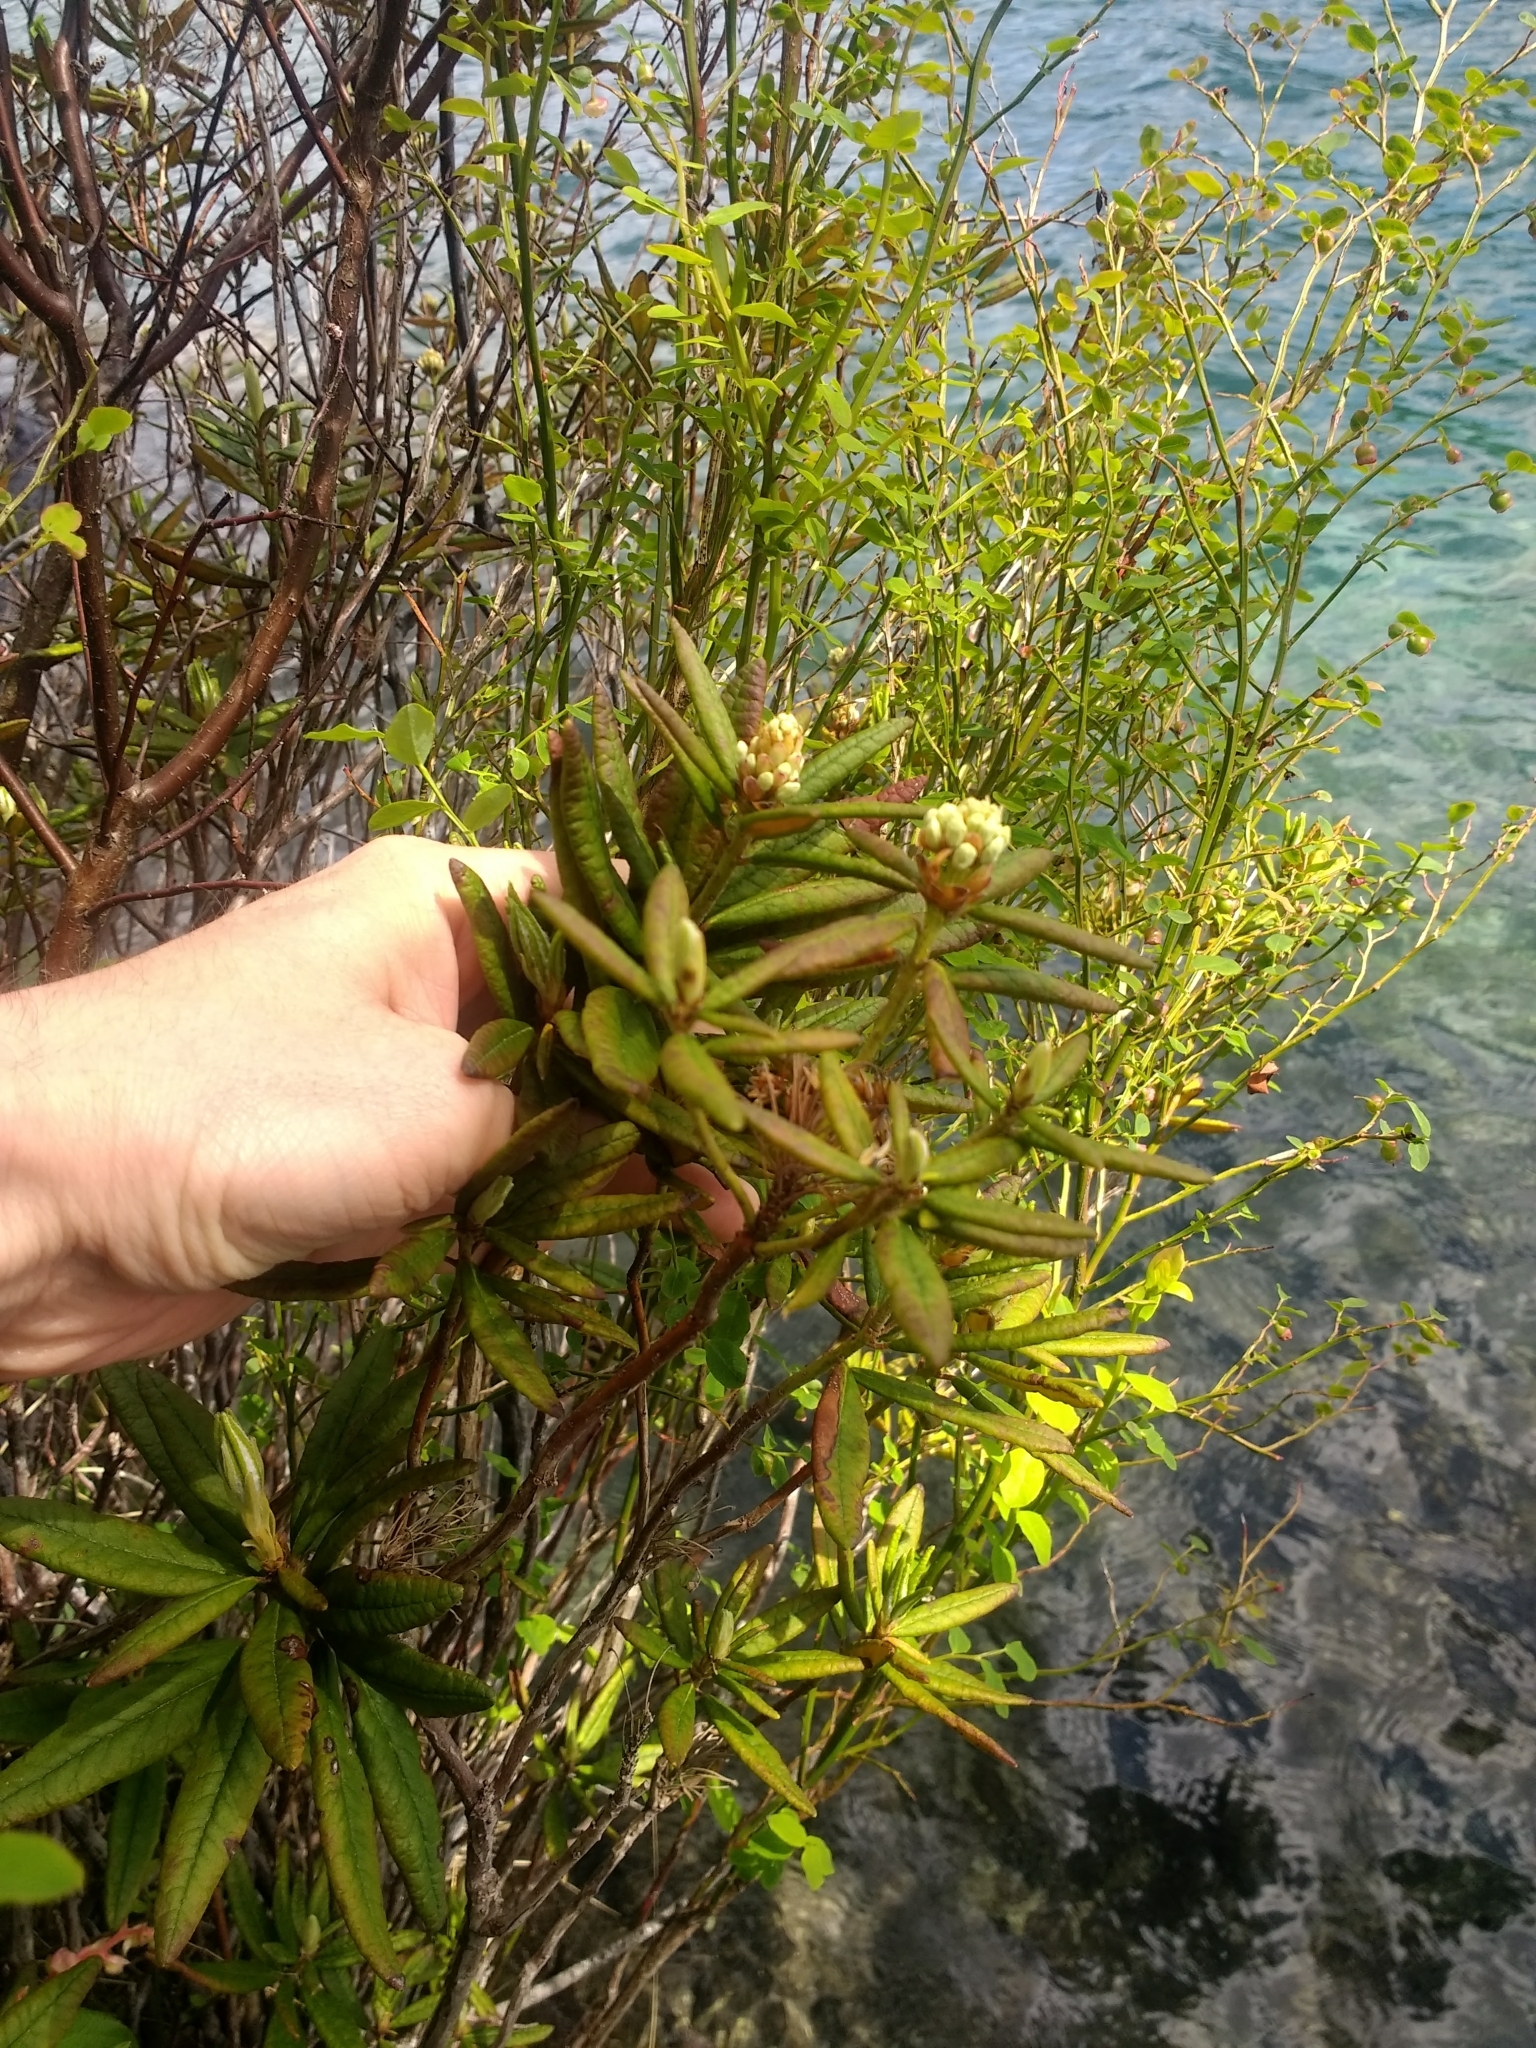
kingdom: Plantae
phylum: Tracheophyta
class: Magnoliopsida
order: Ericales
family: Ericaceae
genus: Rhododendron
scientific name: Rhododendron groenlandicum
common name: Bog labrador tea
